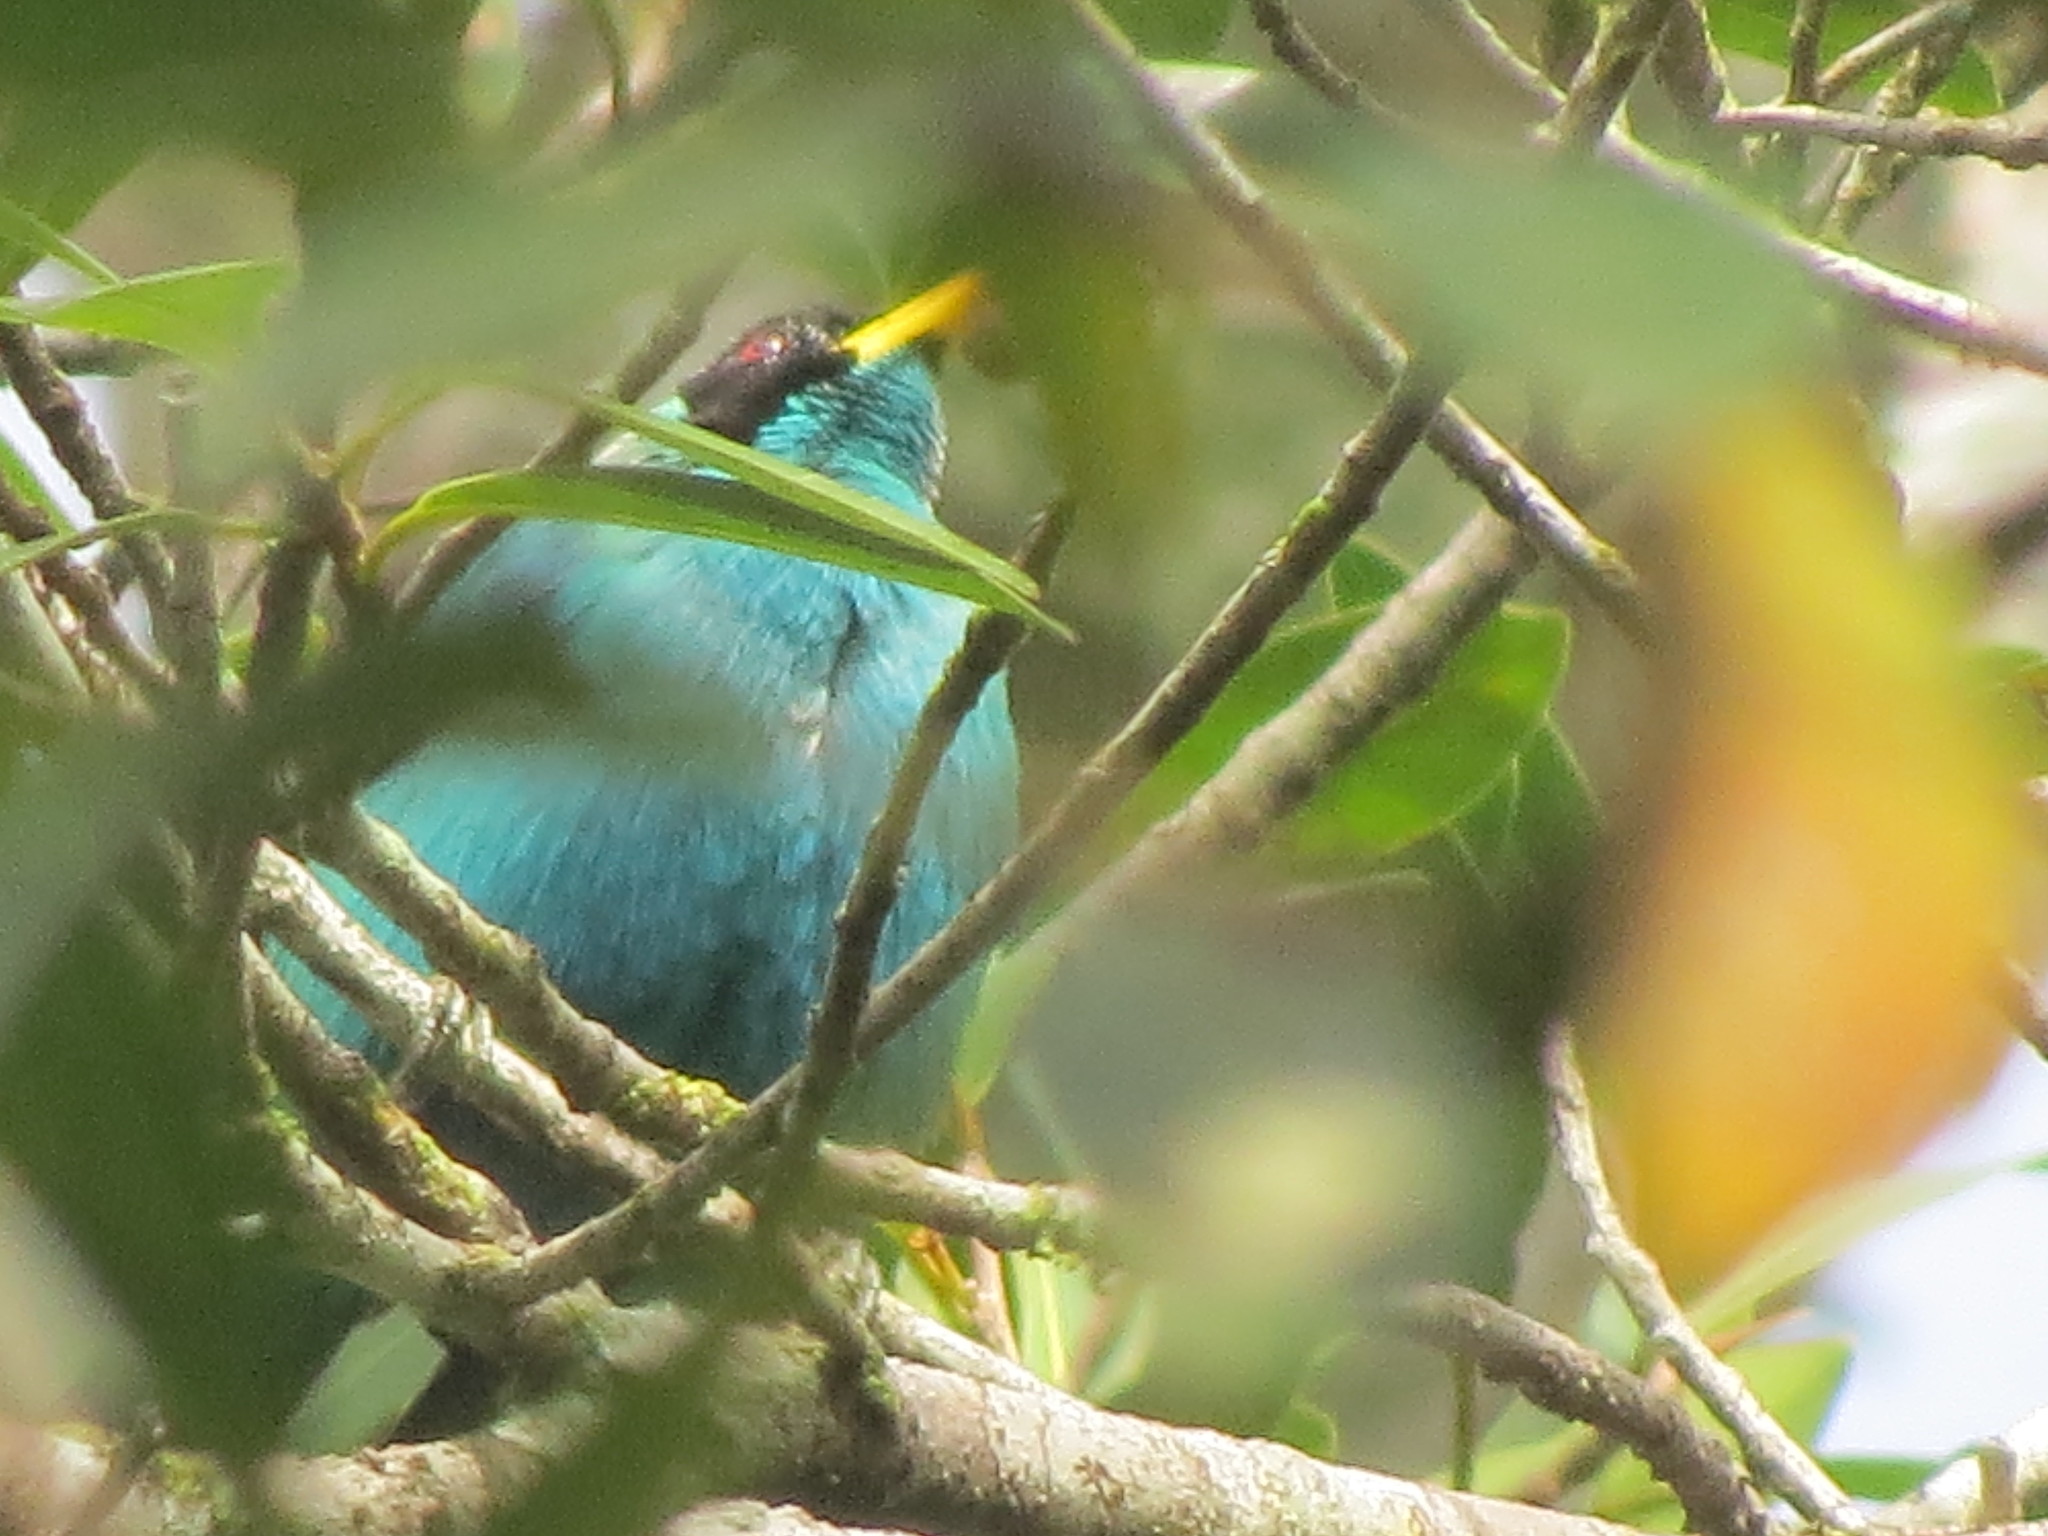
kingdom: Animalia
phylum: Chordata
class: Aves
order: Passeriformes
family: Thraupidae
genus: Chlorophanes
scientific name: Chlorophanes spiza
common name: Green honeycreeper
